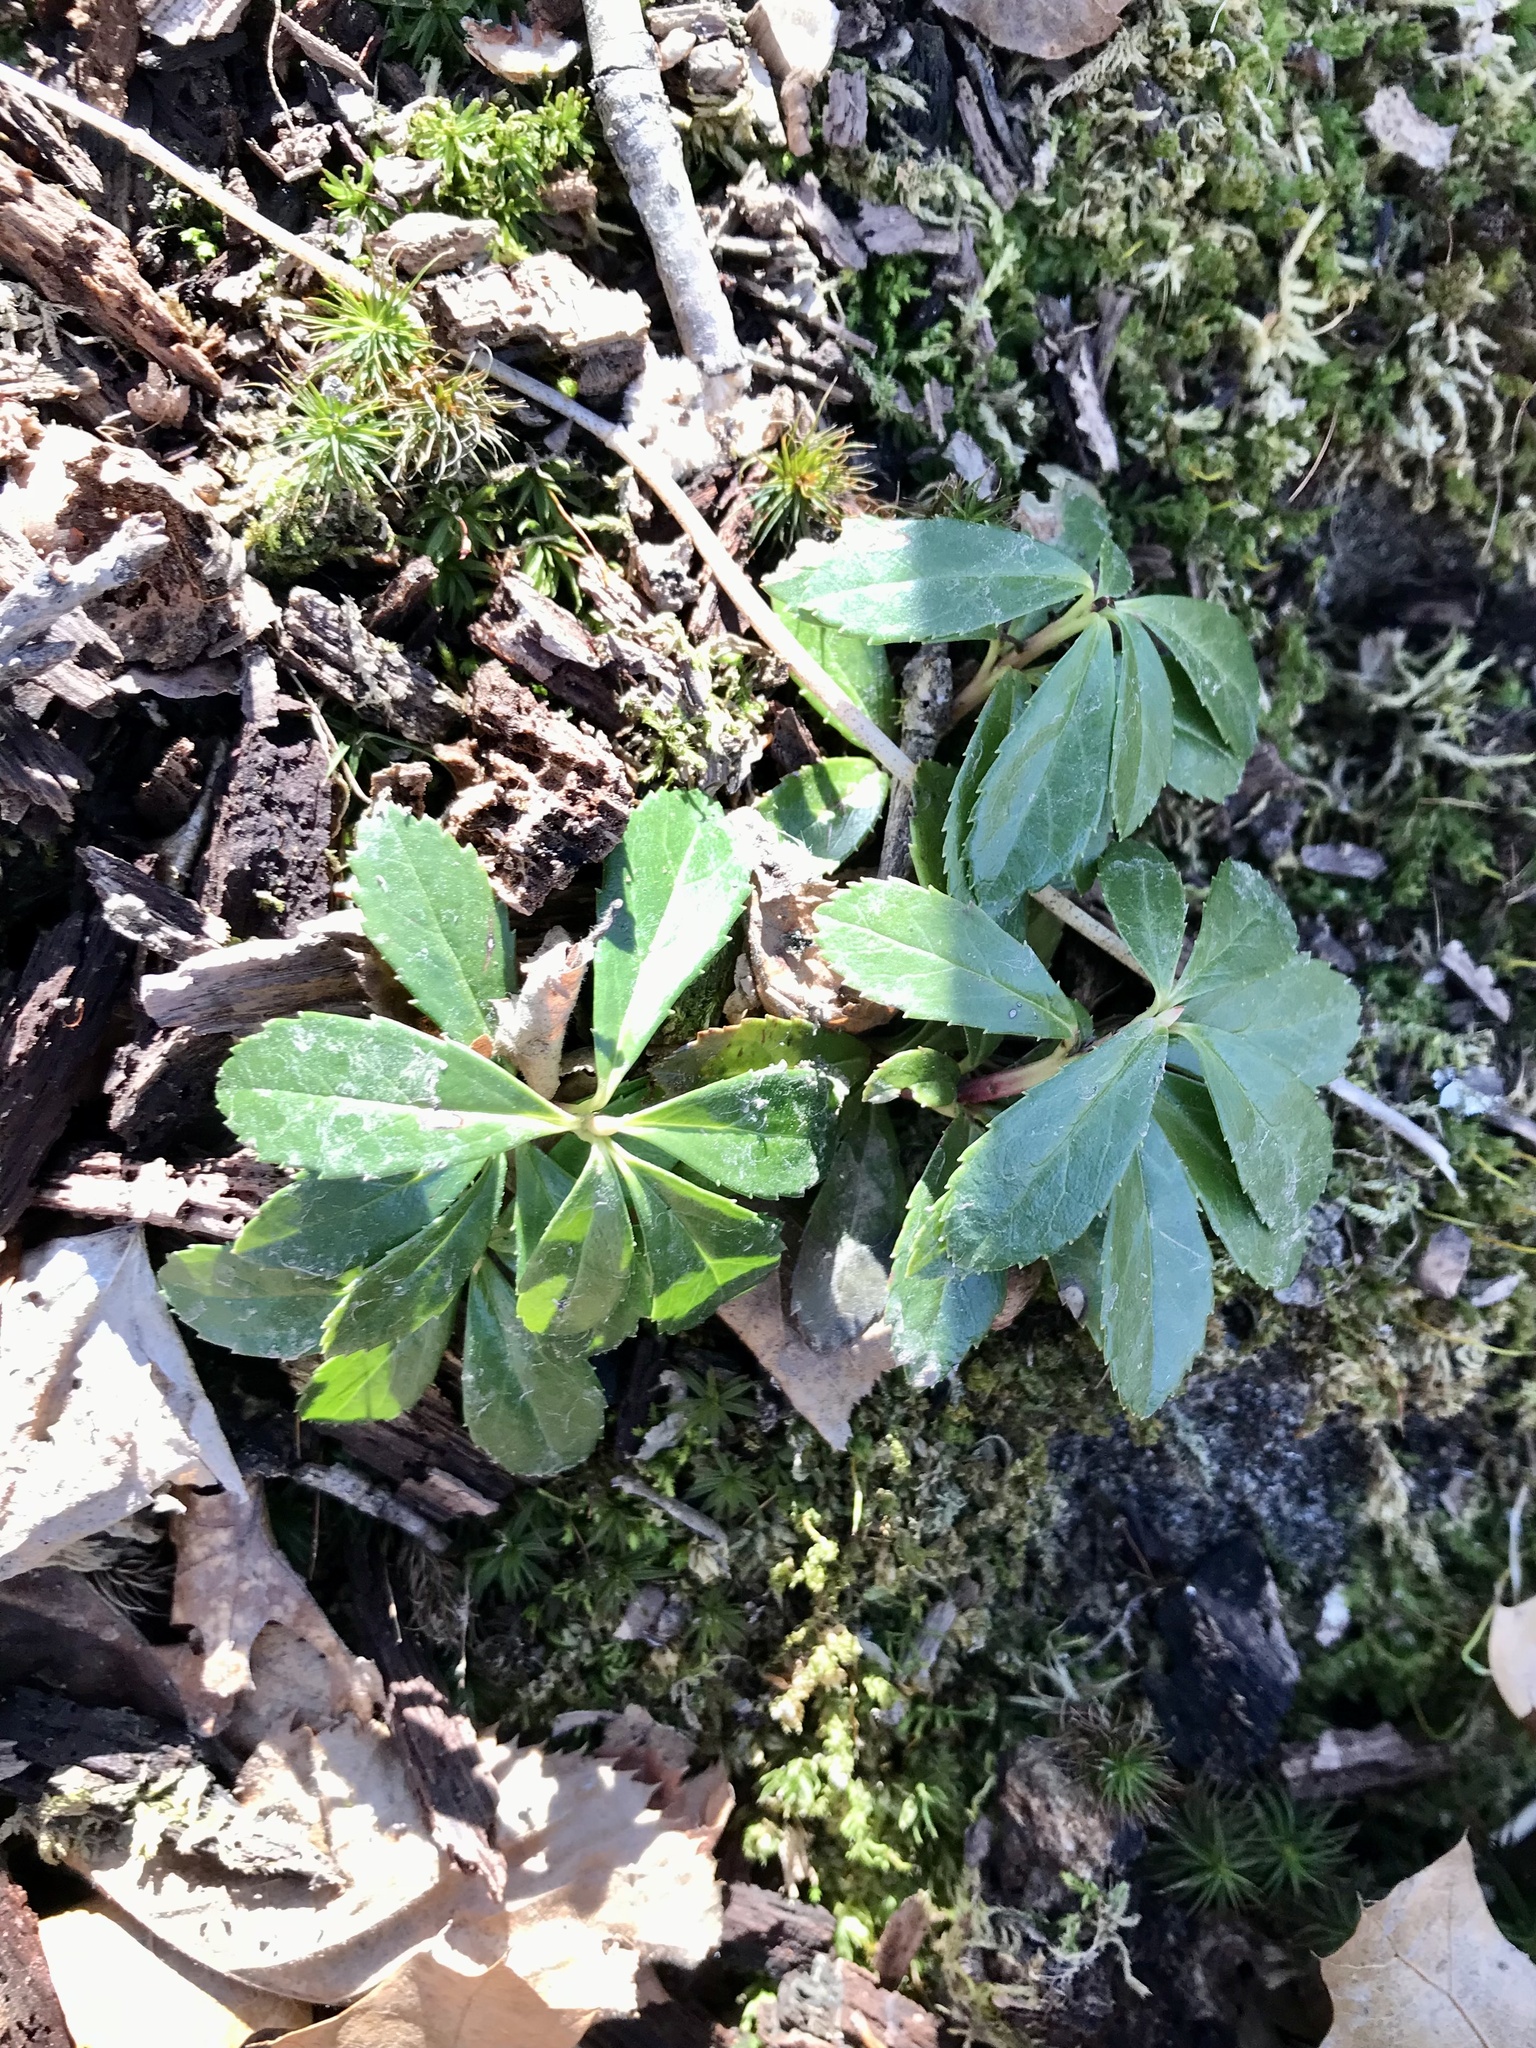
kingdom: Plantae
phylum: Tracheophyta
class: Magnoliopsida
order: Ericales
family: Ericaceae
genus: Chimaphila
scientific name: Chimaphila umbellata
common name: Pipsissewa
